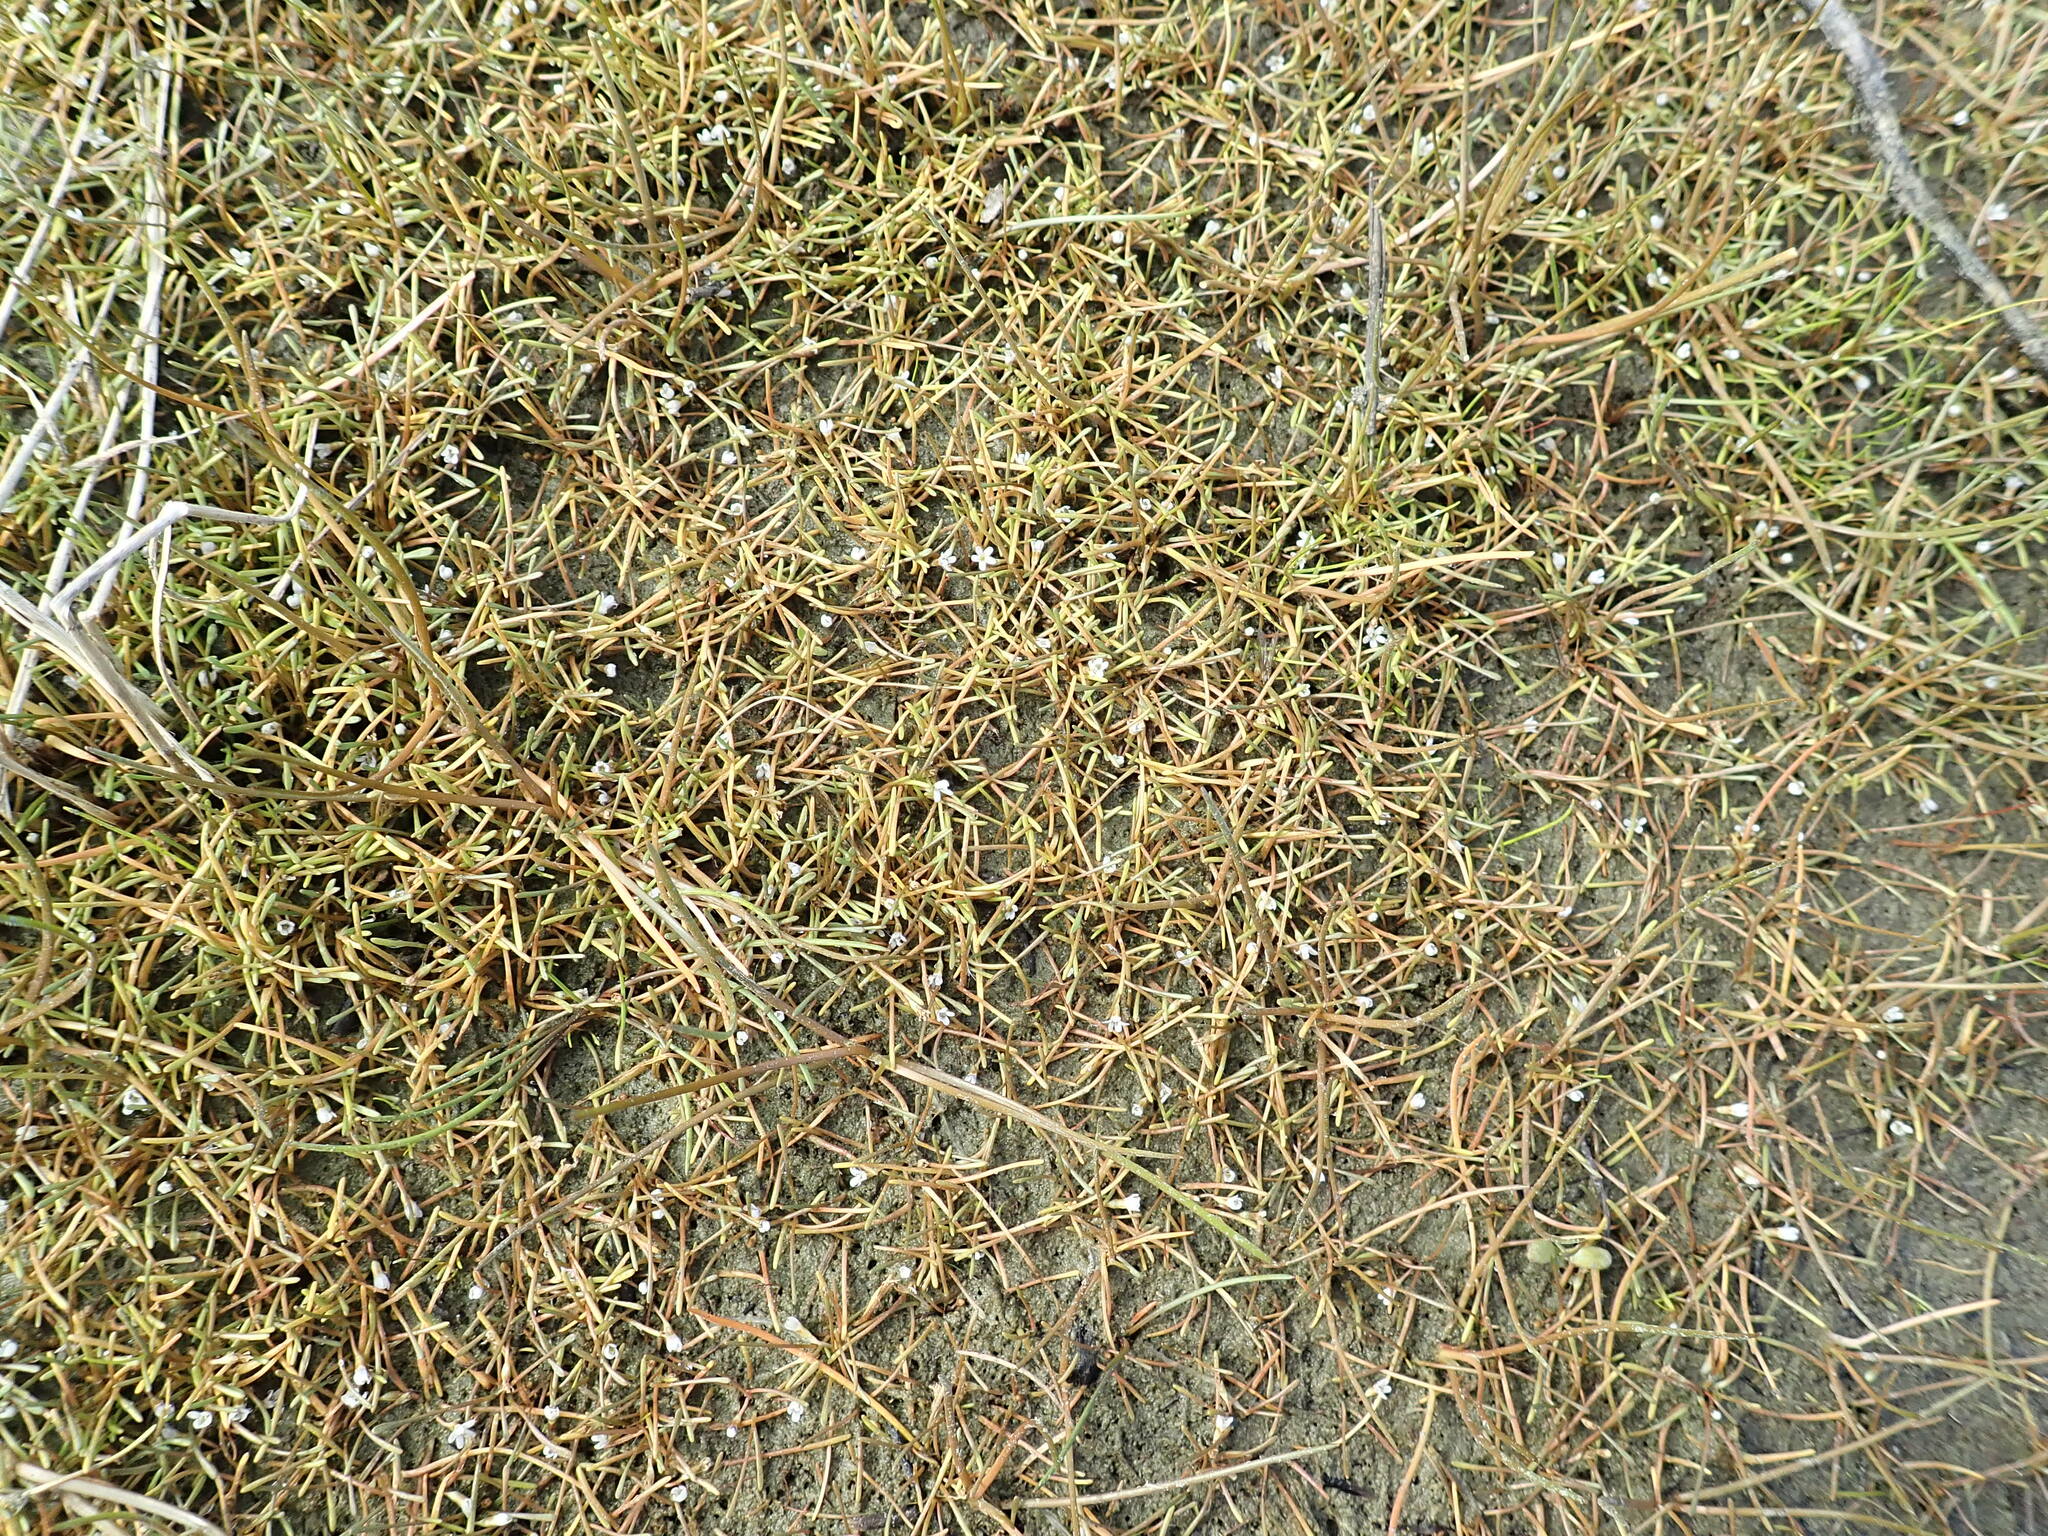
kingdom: Plantae
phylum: Tracheophyta
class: Magnoliopsida
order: Lamiales
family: Scrophulariaceae
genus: Limosella
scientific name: Limosella australis
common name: Welsh mudwort
